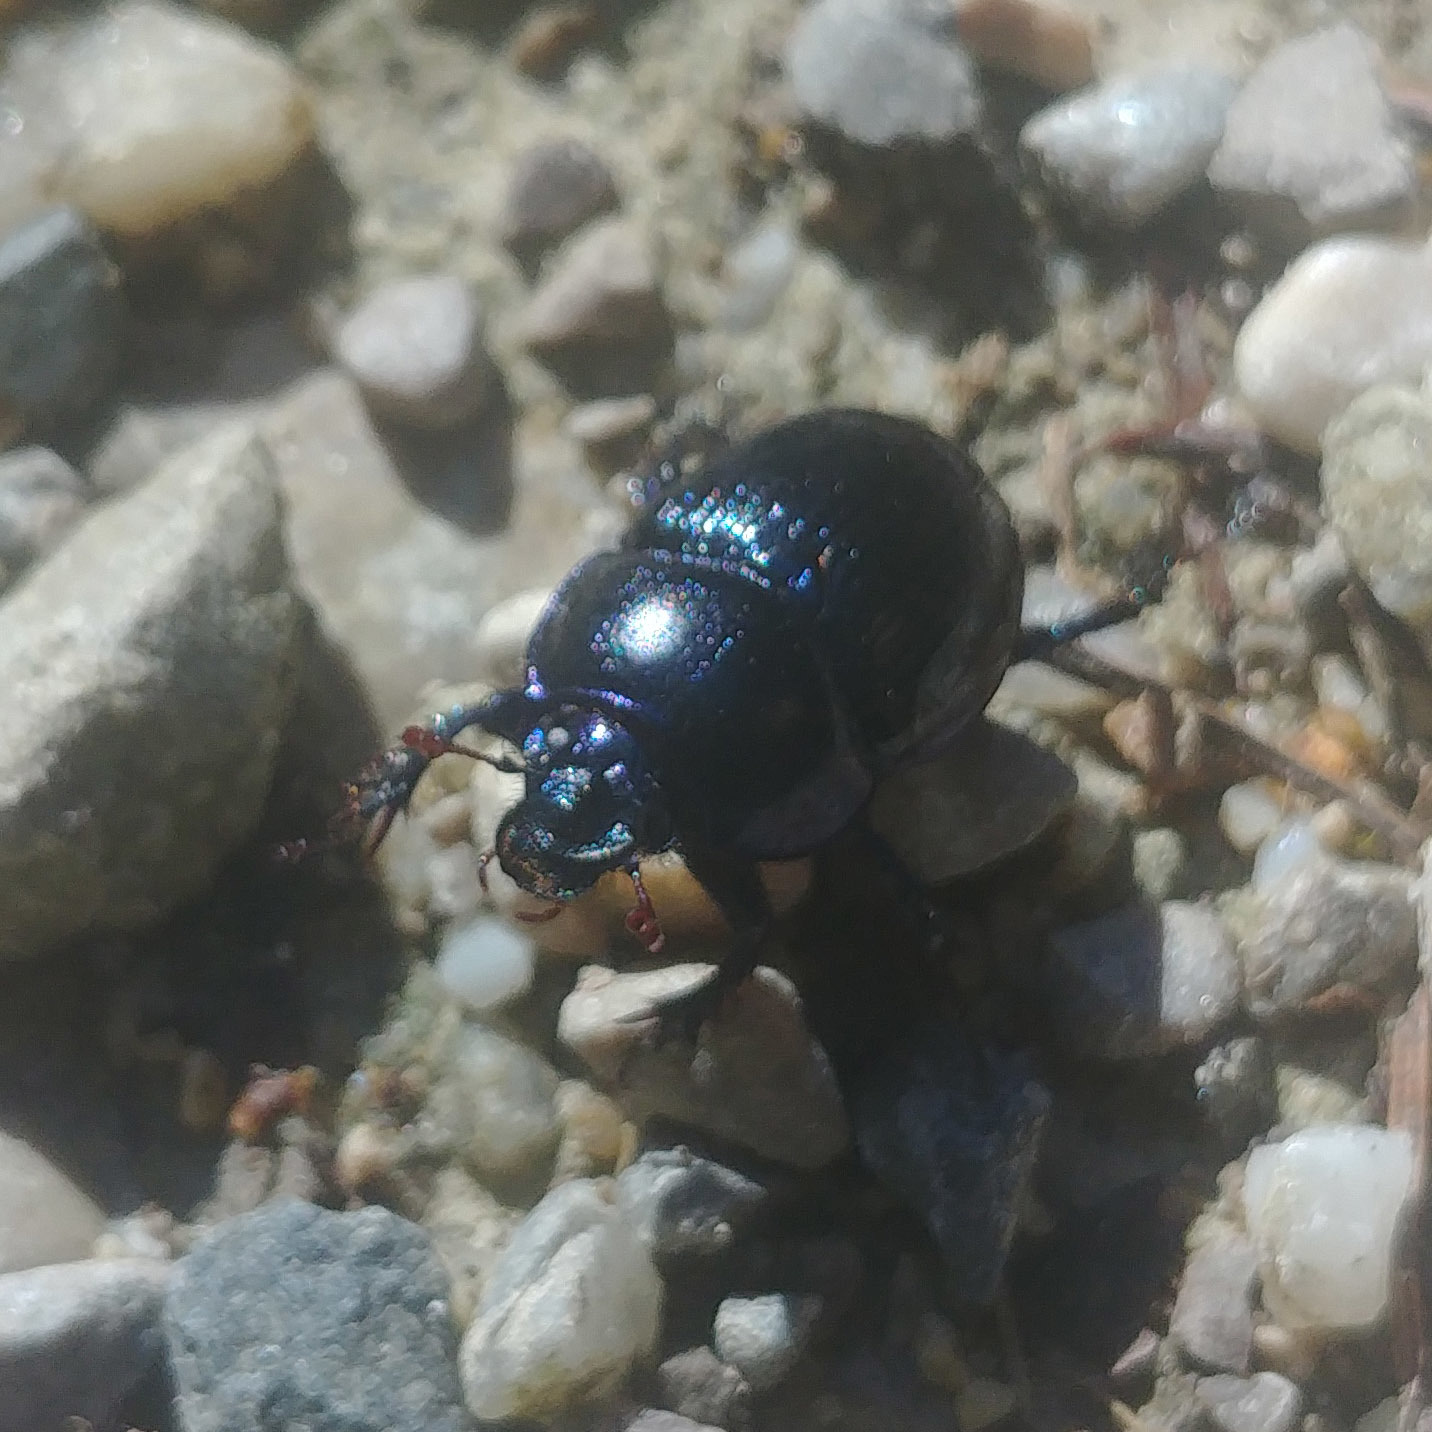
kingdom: Animalia
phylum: Arthropoda
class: Insecta
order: Coleoptera
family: Geotrupidae
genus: Anoplotrupes
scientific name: Anoplotrupes stercorosus
